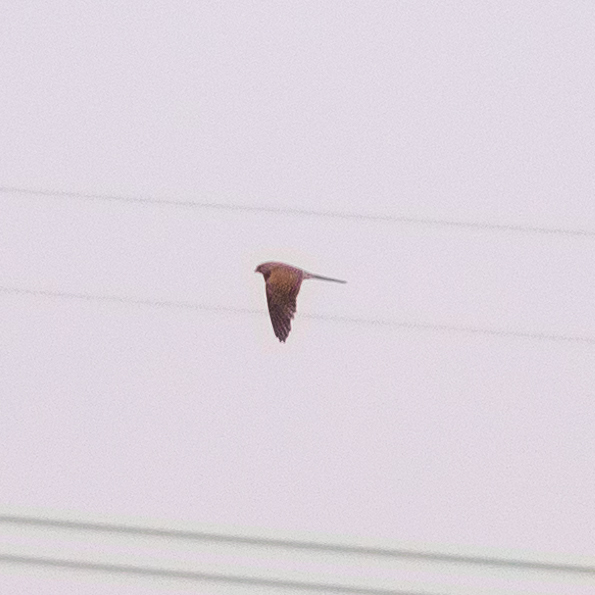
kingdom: Animalia
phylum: Chordata
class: Aves
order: Falconiformes
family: Falconidae
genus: Falco
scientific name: Falco tinnunculus
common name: Common kestrel
